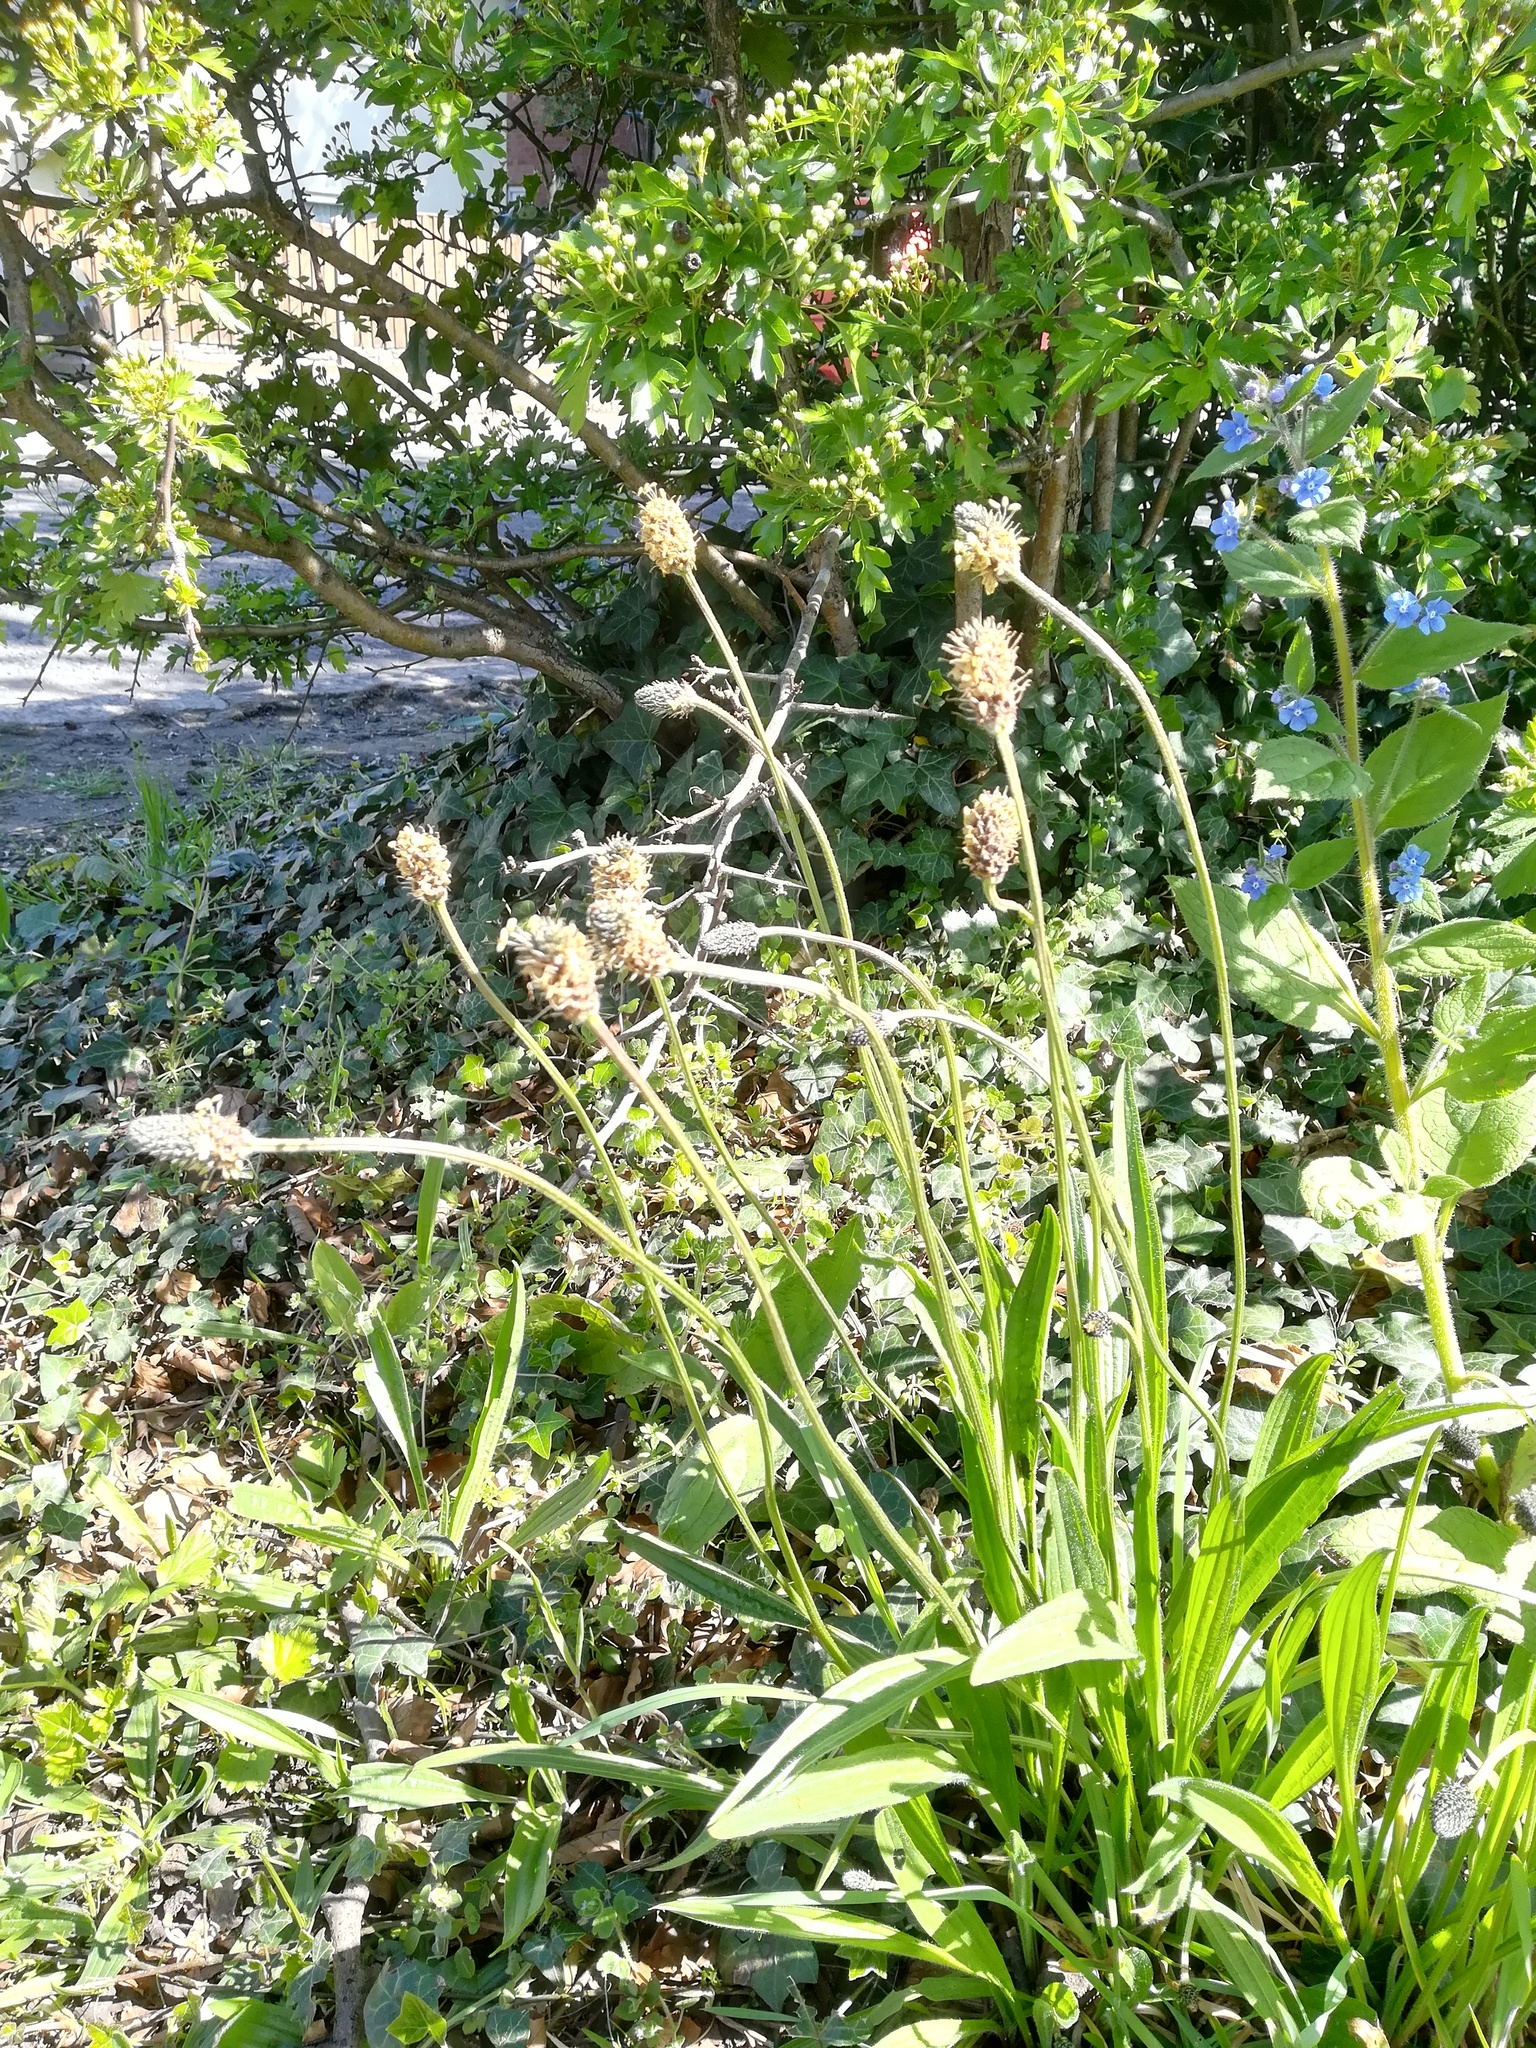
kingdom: Plantae
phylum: Tracheophyta
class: Magnoliopsida
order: Lamiales
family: Plantaginaceae
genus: Plantago
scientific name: Plantago lanceolata
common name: Ribwort plantain
